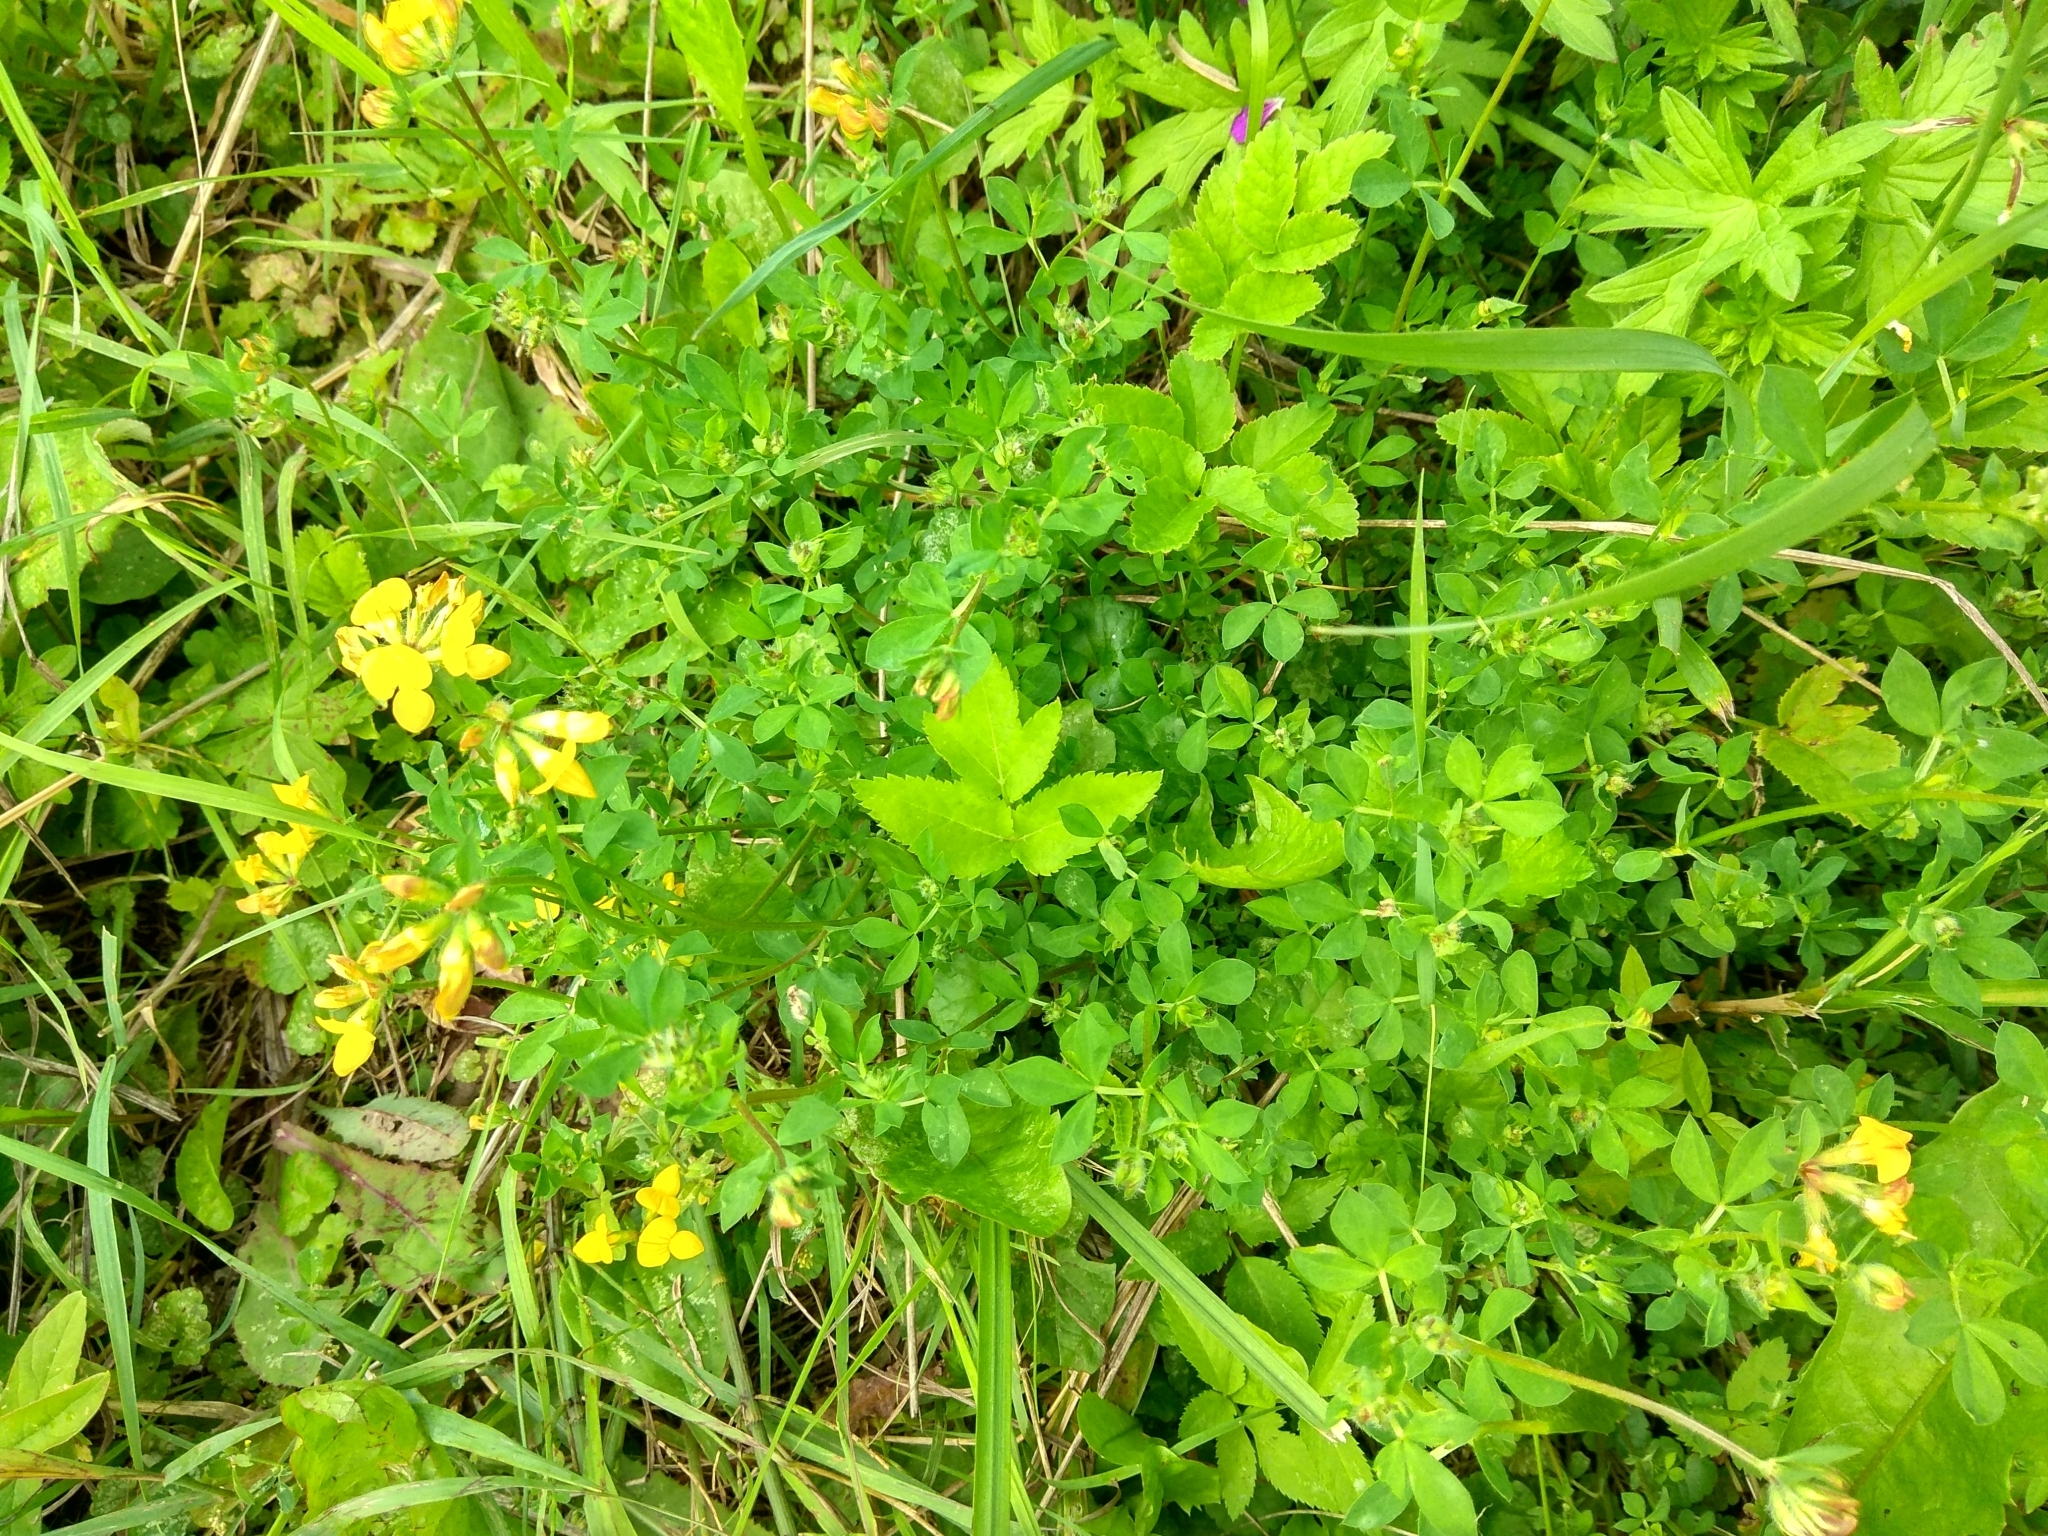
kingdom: Plantae
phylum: Tracheophyta
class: Magnoliopsida
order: Fabales
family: Fabaceae
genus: Lotus
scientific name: Lotus corniculatus
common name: Common bird's-foot-trefoil
